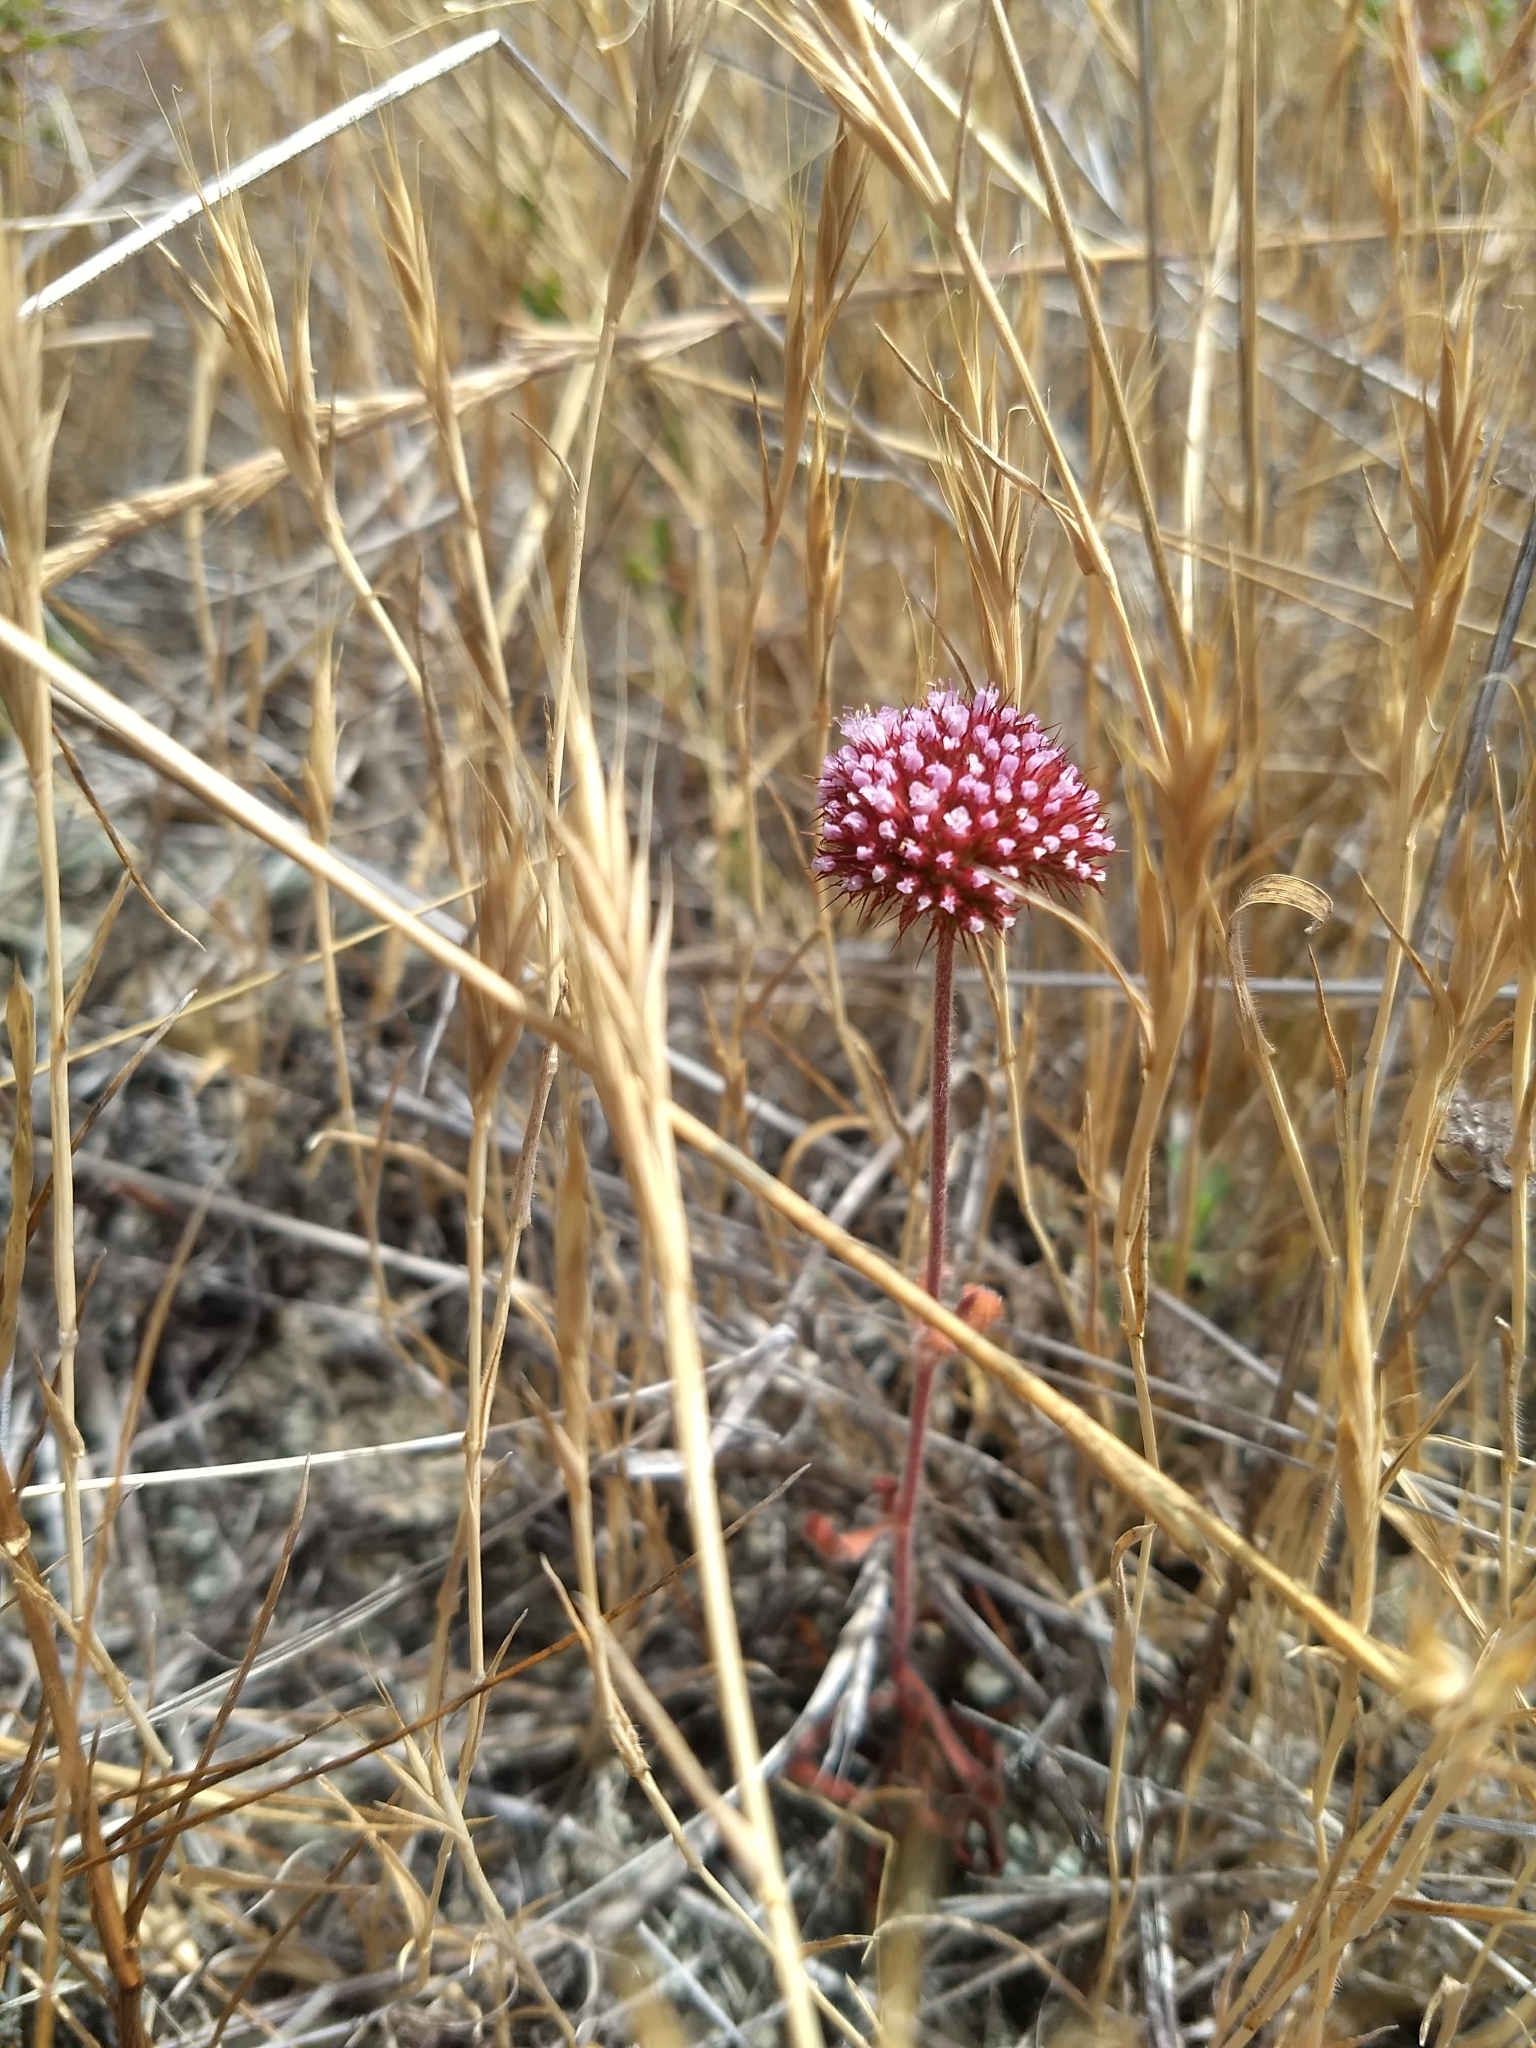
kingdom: Plantae
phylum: Tracheophyta
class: Magnoliopsida
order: Caryophyllales
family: Polygonaceae
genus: Chorizanthe
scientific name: Chorizanthe palmeri
